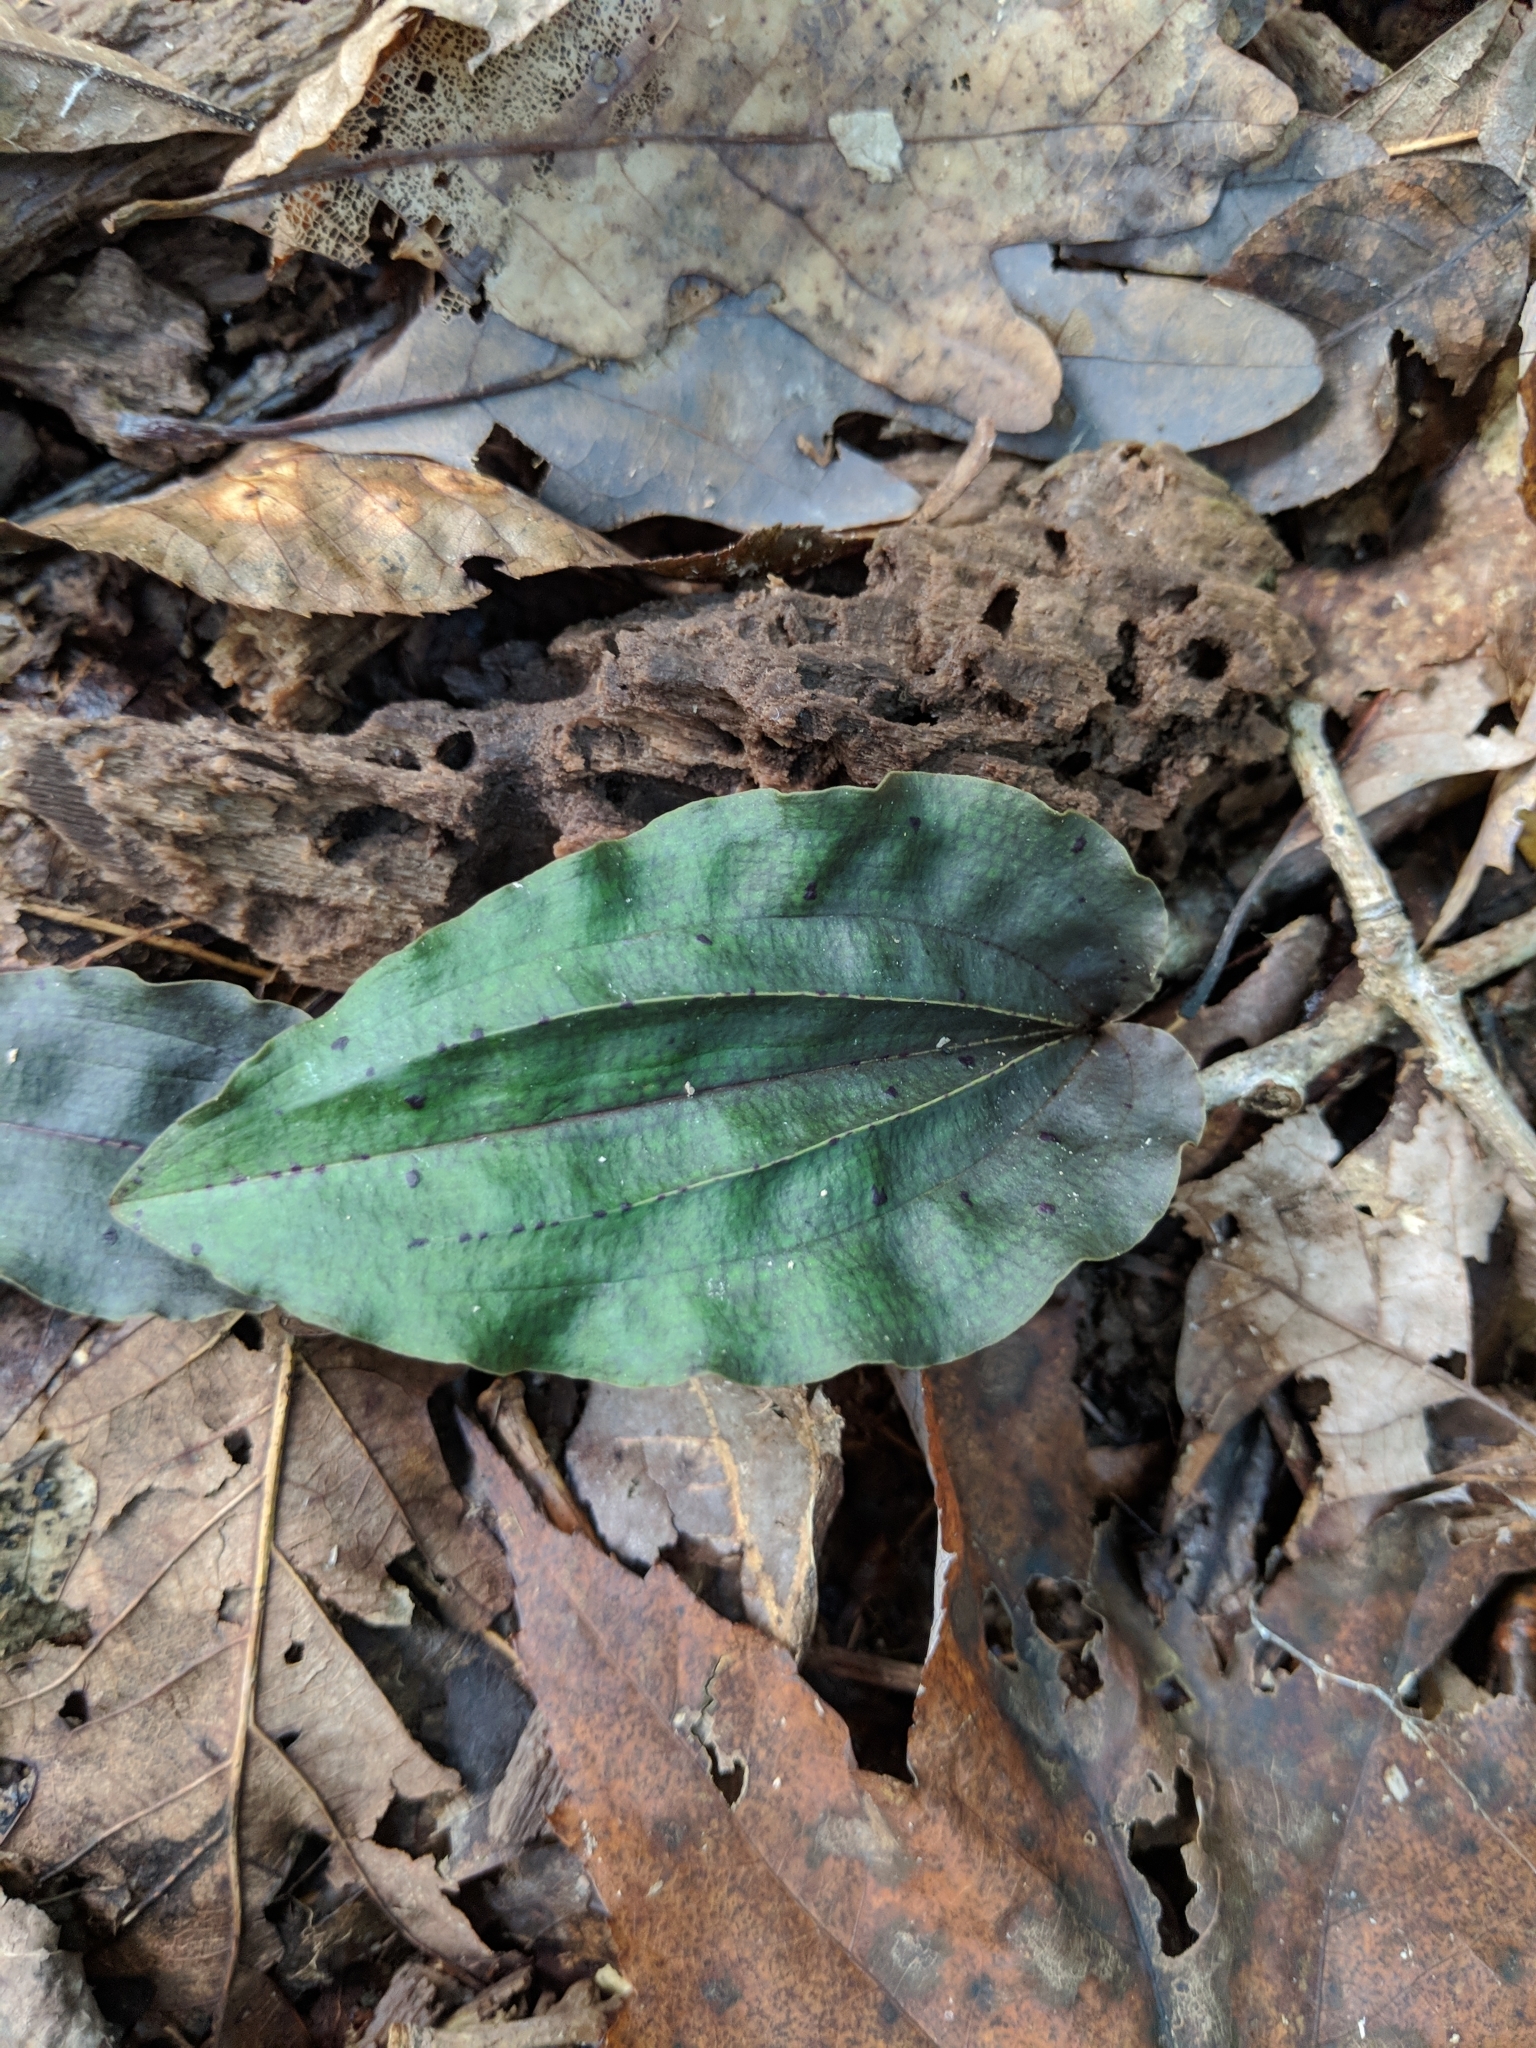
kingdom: Plantae
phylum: Tracheophyta
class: Liliopsida
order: Asparagales
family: Orchidaceae
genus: Tipularia
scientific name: Tipularia discolor
